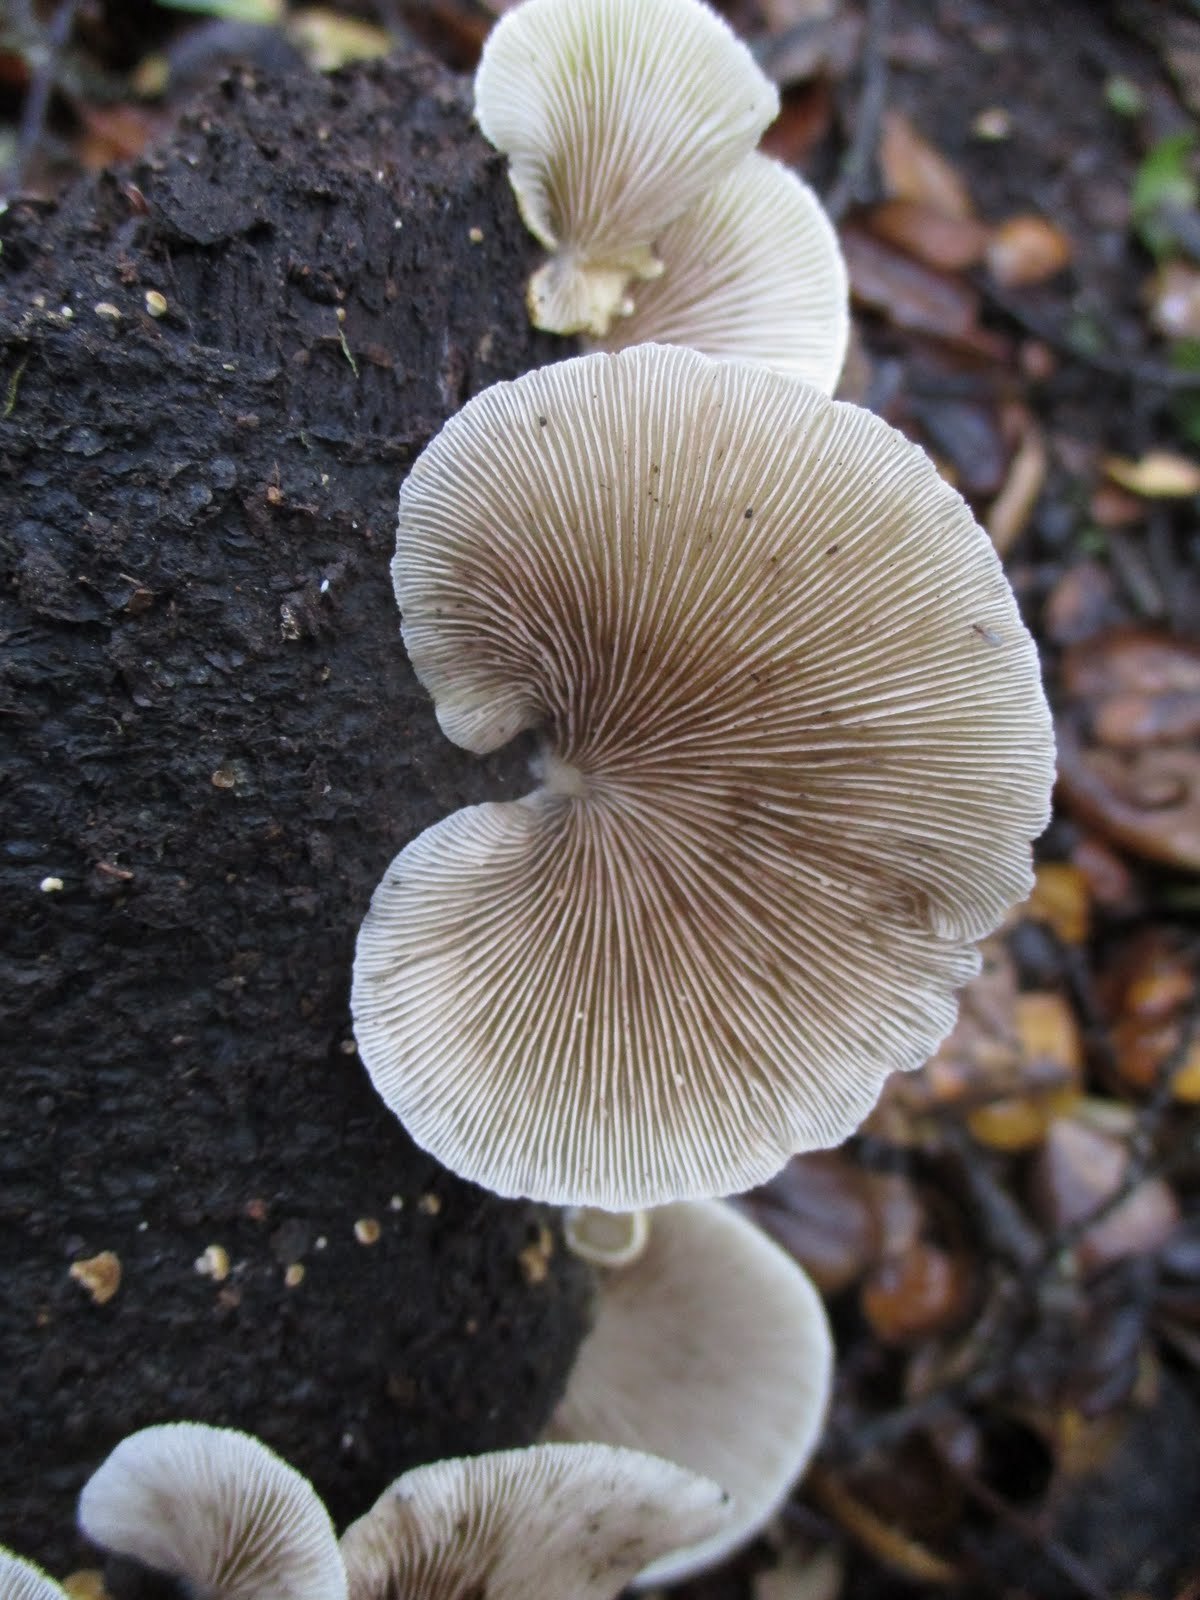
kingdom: Fungi
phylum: Basidiomycota
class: Agaricomycetes
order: Agaricales
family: Crepidotaceae
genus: Crepidotus
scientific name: Crepidotus mollis
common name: Peeling oysterling
